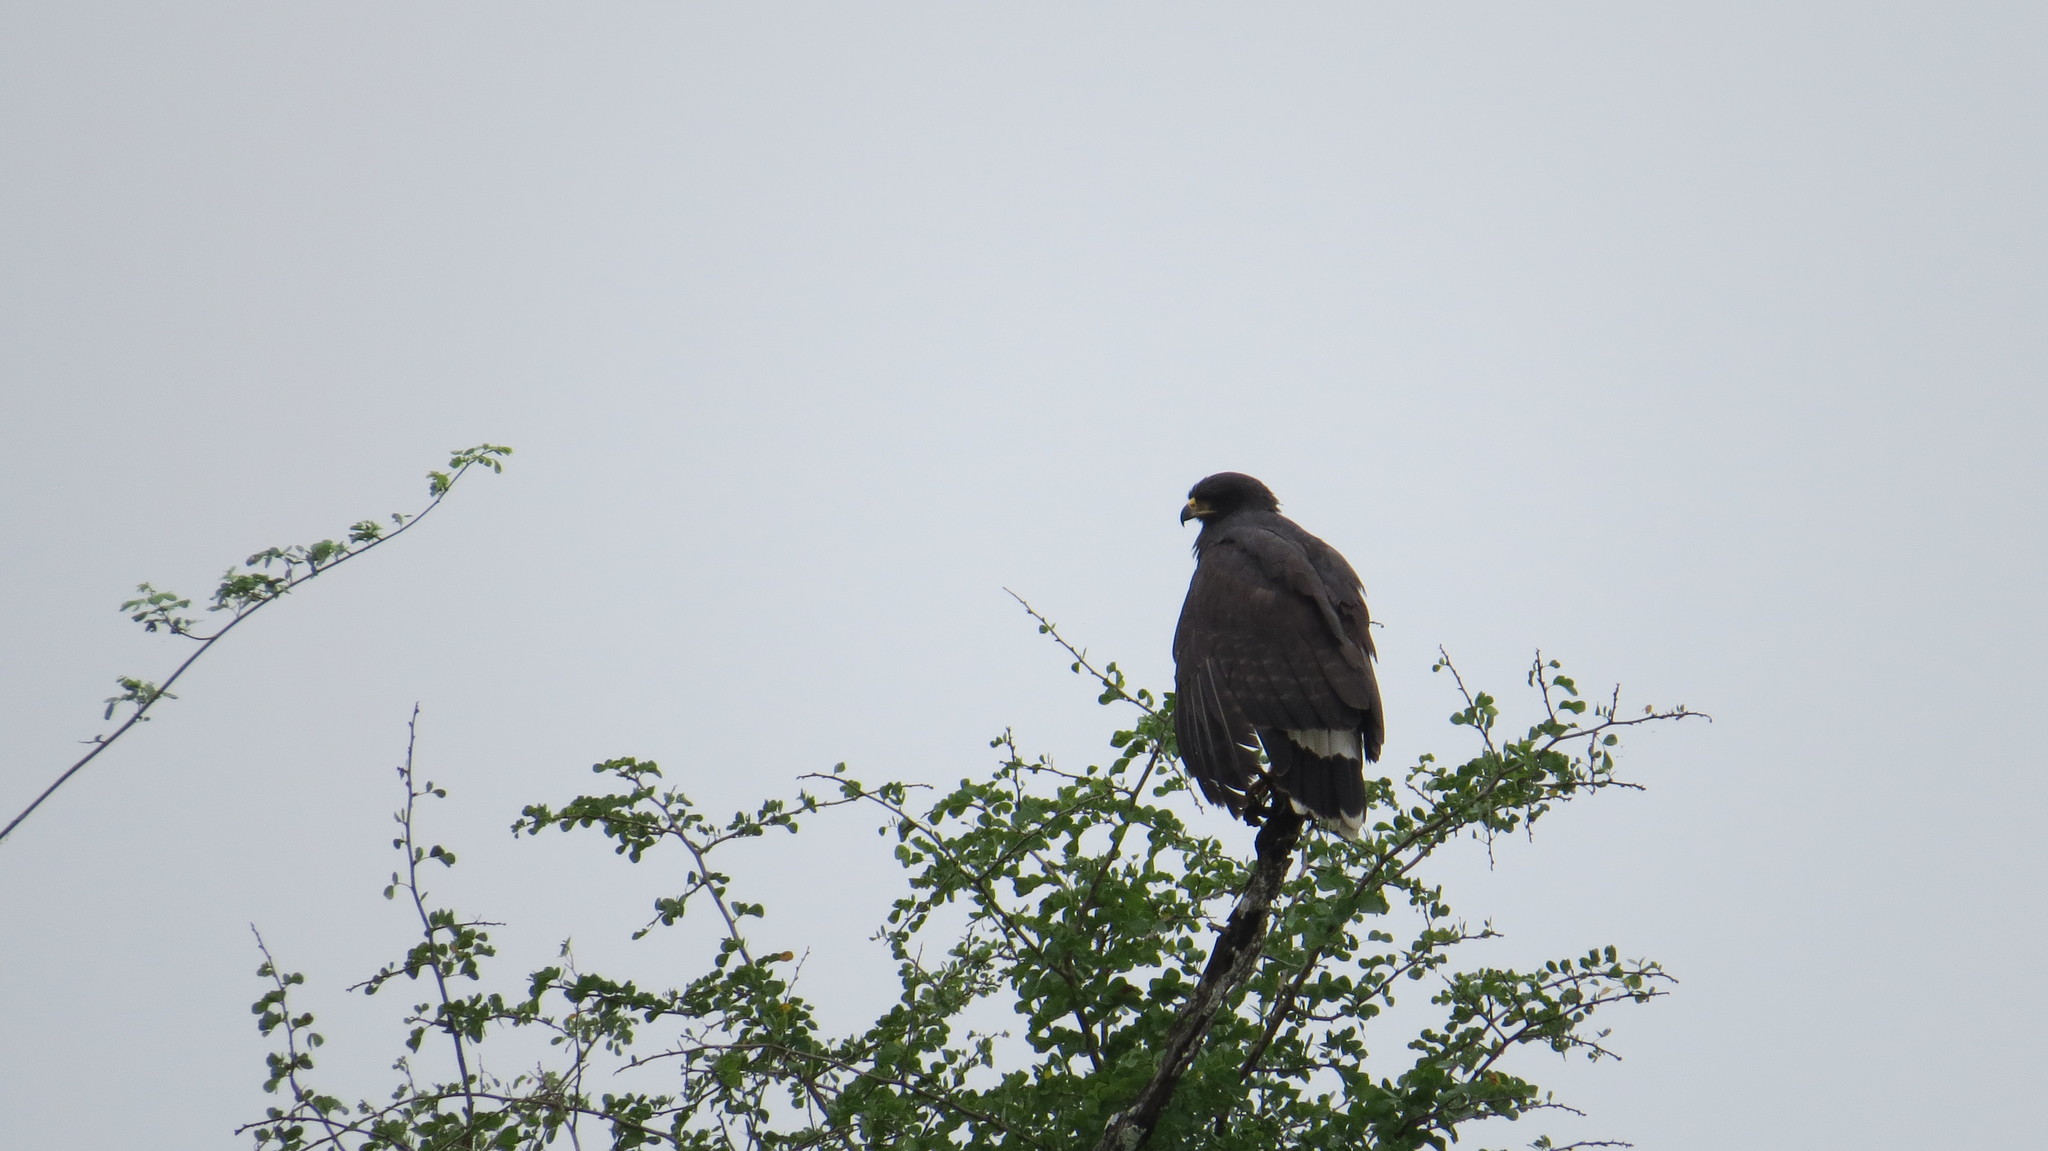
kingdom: Animalia
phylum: Chordata
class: Aves
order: Accipitriformes
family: Accipitridae
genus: Buteogallus
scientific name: Buteogallus urubitinga
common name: Great black hawk
